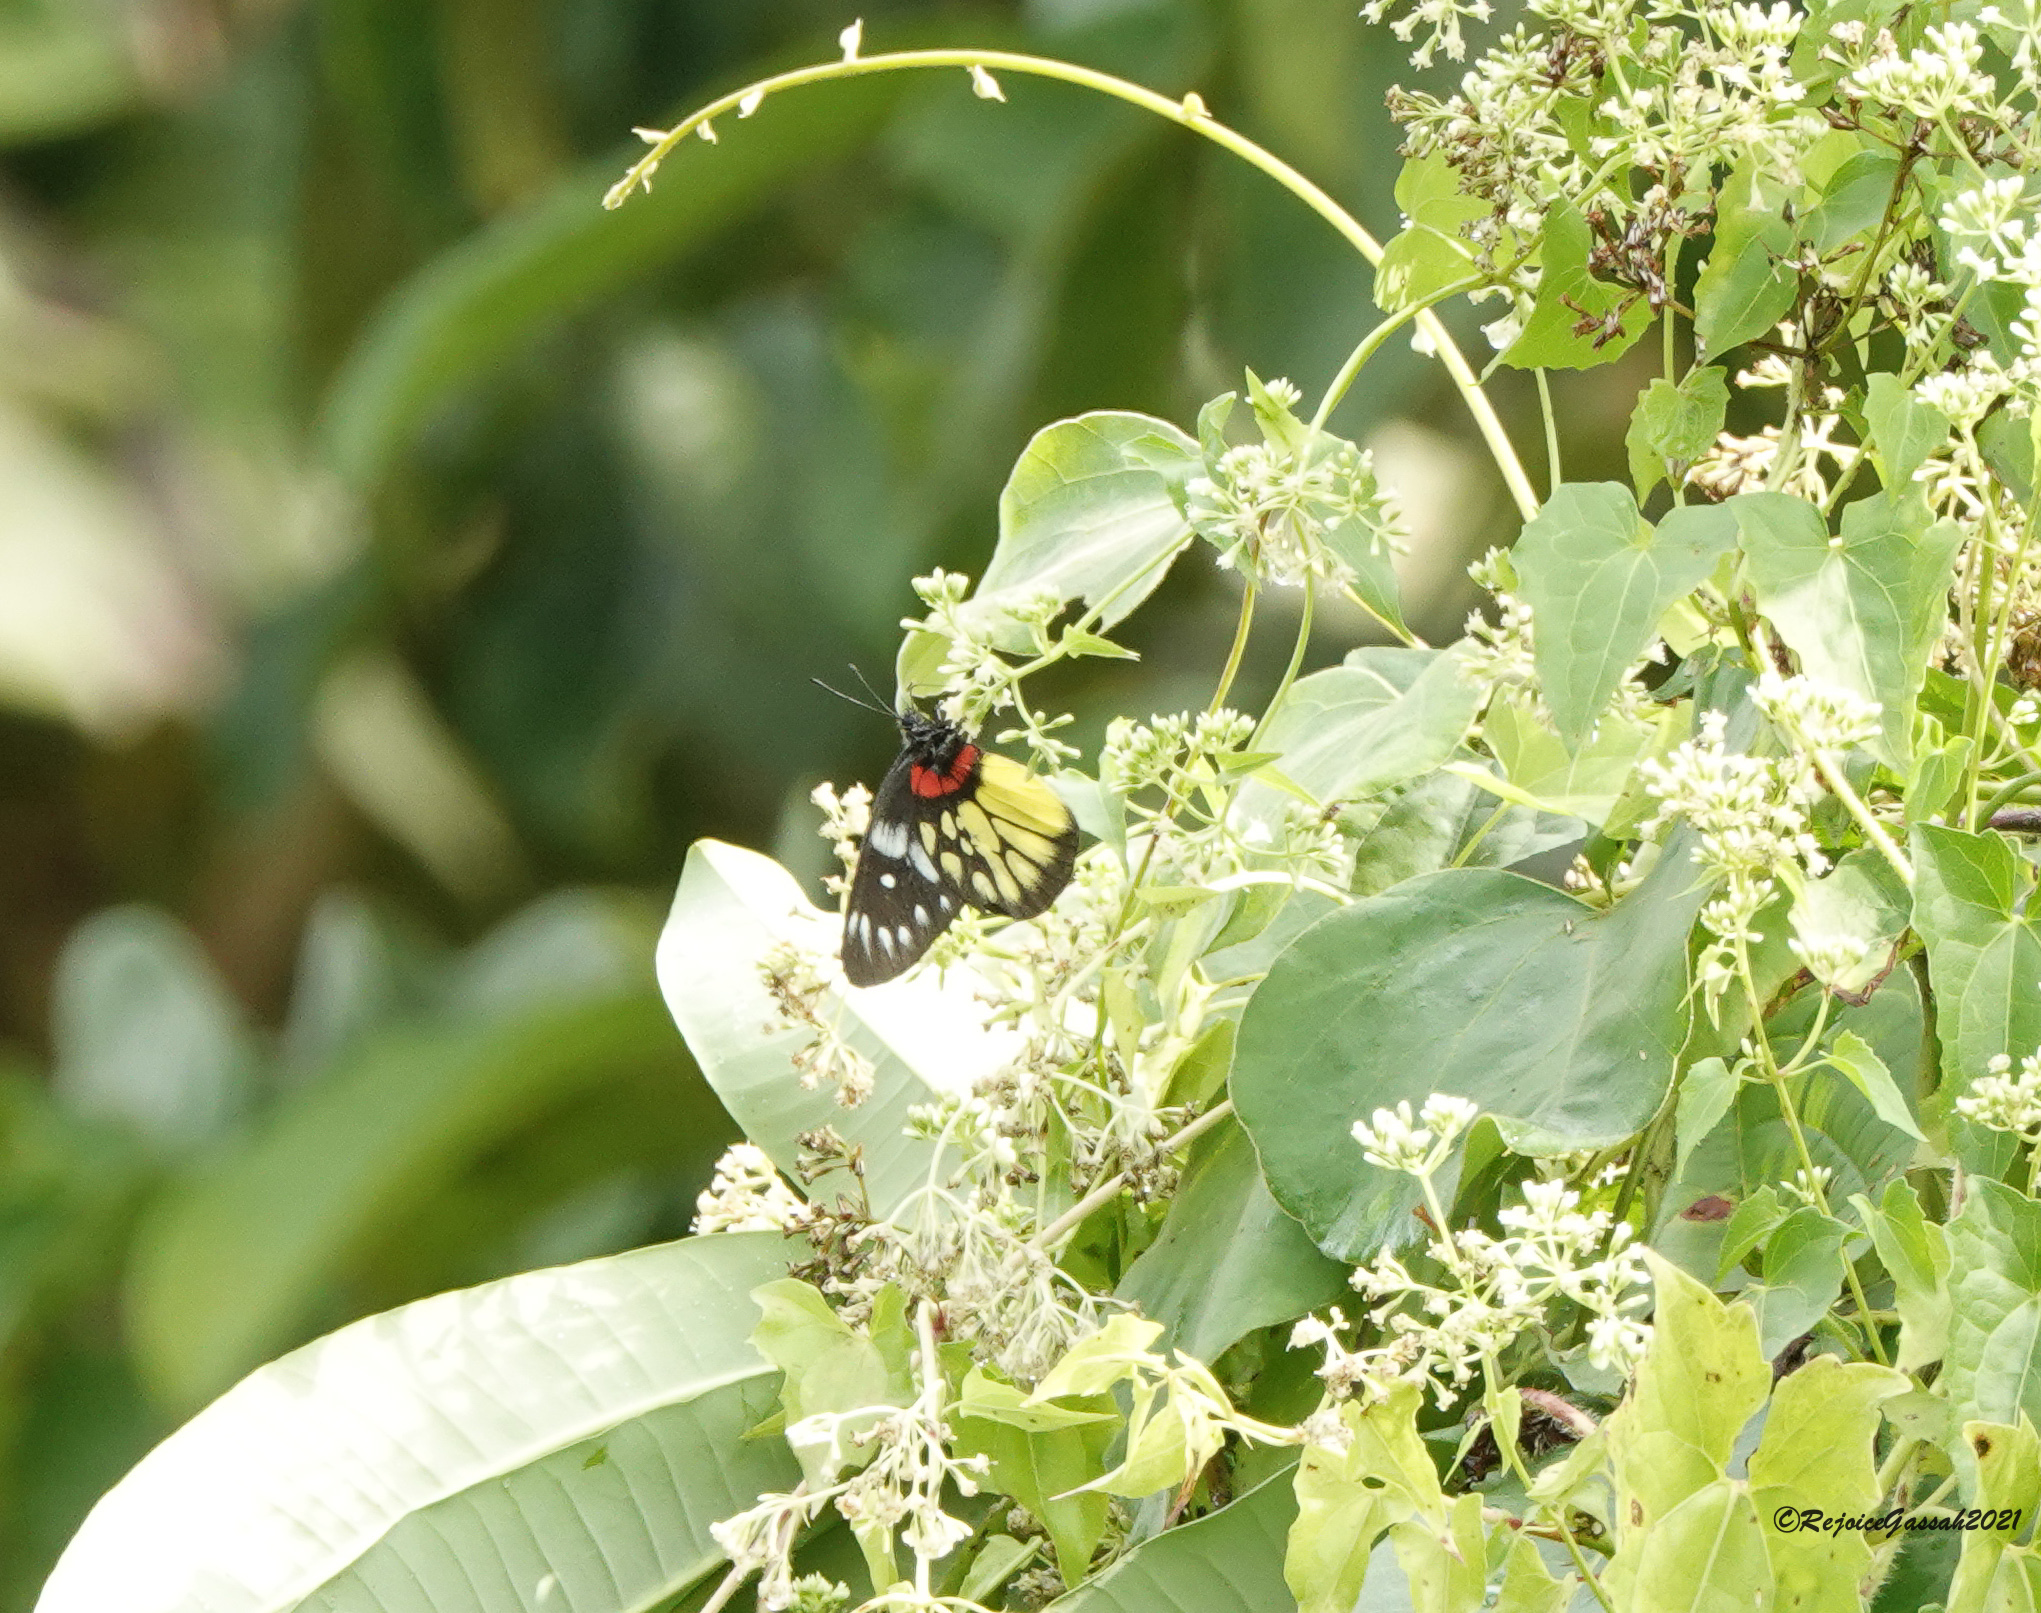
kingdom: Animalia
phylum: Arthropoda
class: Insecta
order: Lepidoptera
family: Pieridae
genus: Delias
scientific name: Delias pasithoe
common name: Red-base jezebel
